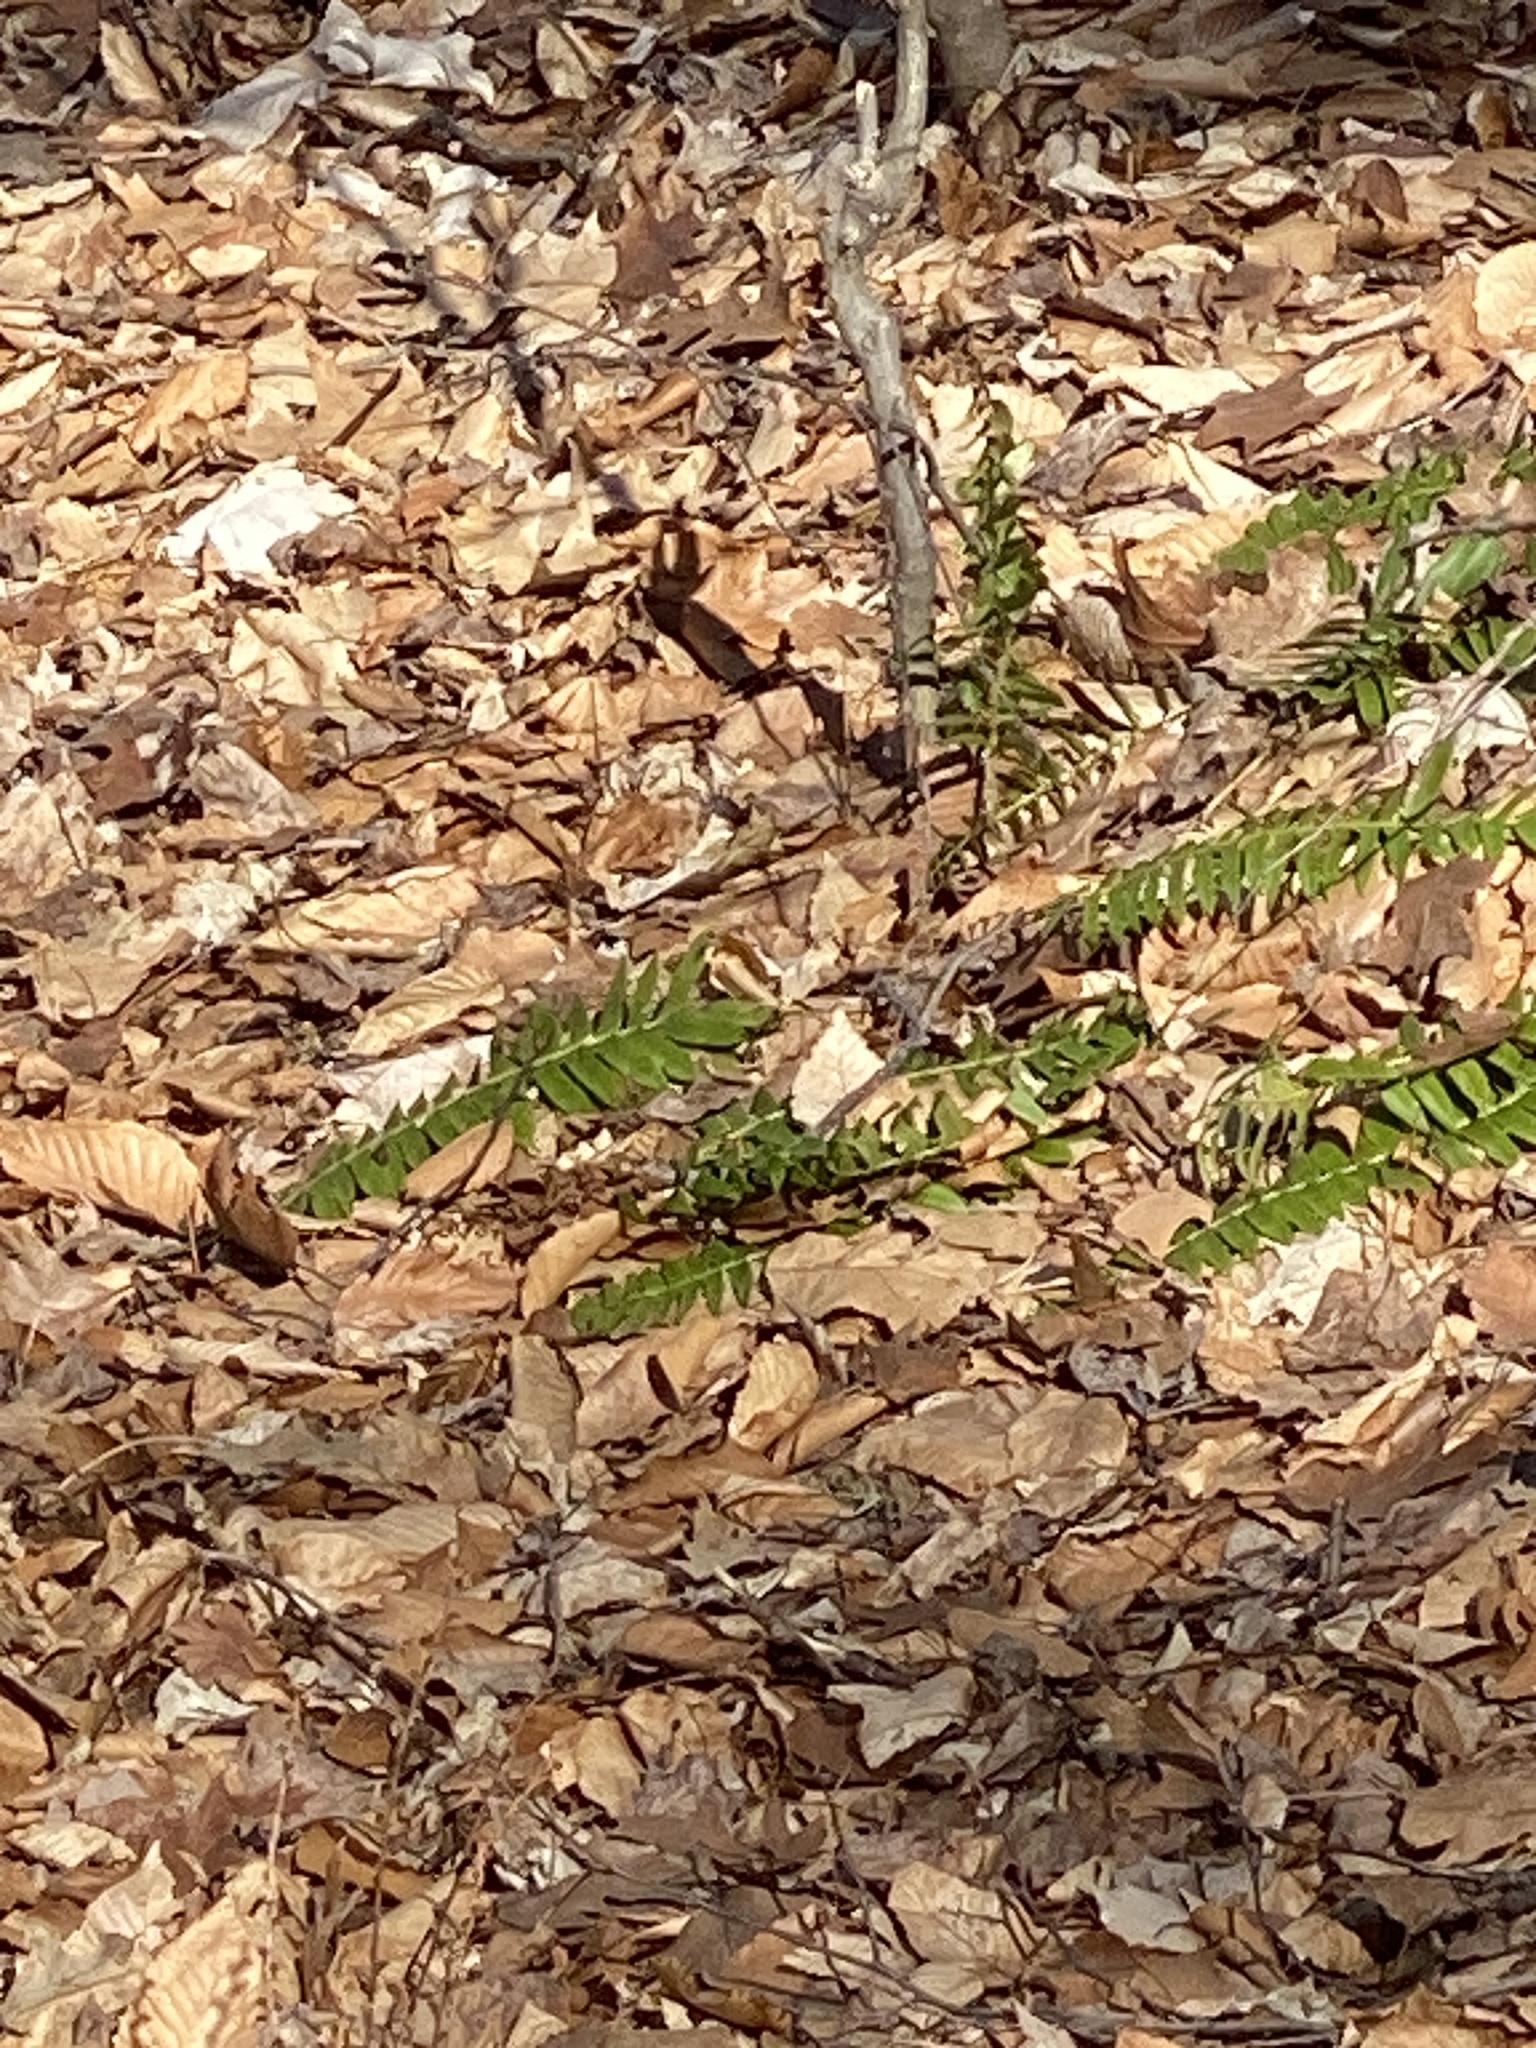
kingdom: Plantae
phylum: Tracheophyta
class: Polypodiopsida
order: Polypodiales
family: Dryopteridaceae
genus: Polystichum
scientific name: Polystichum acrostichoides
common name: Christmas fern
